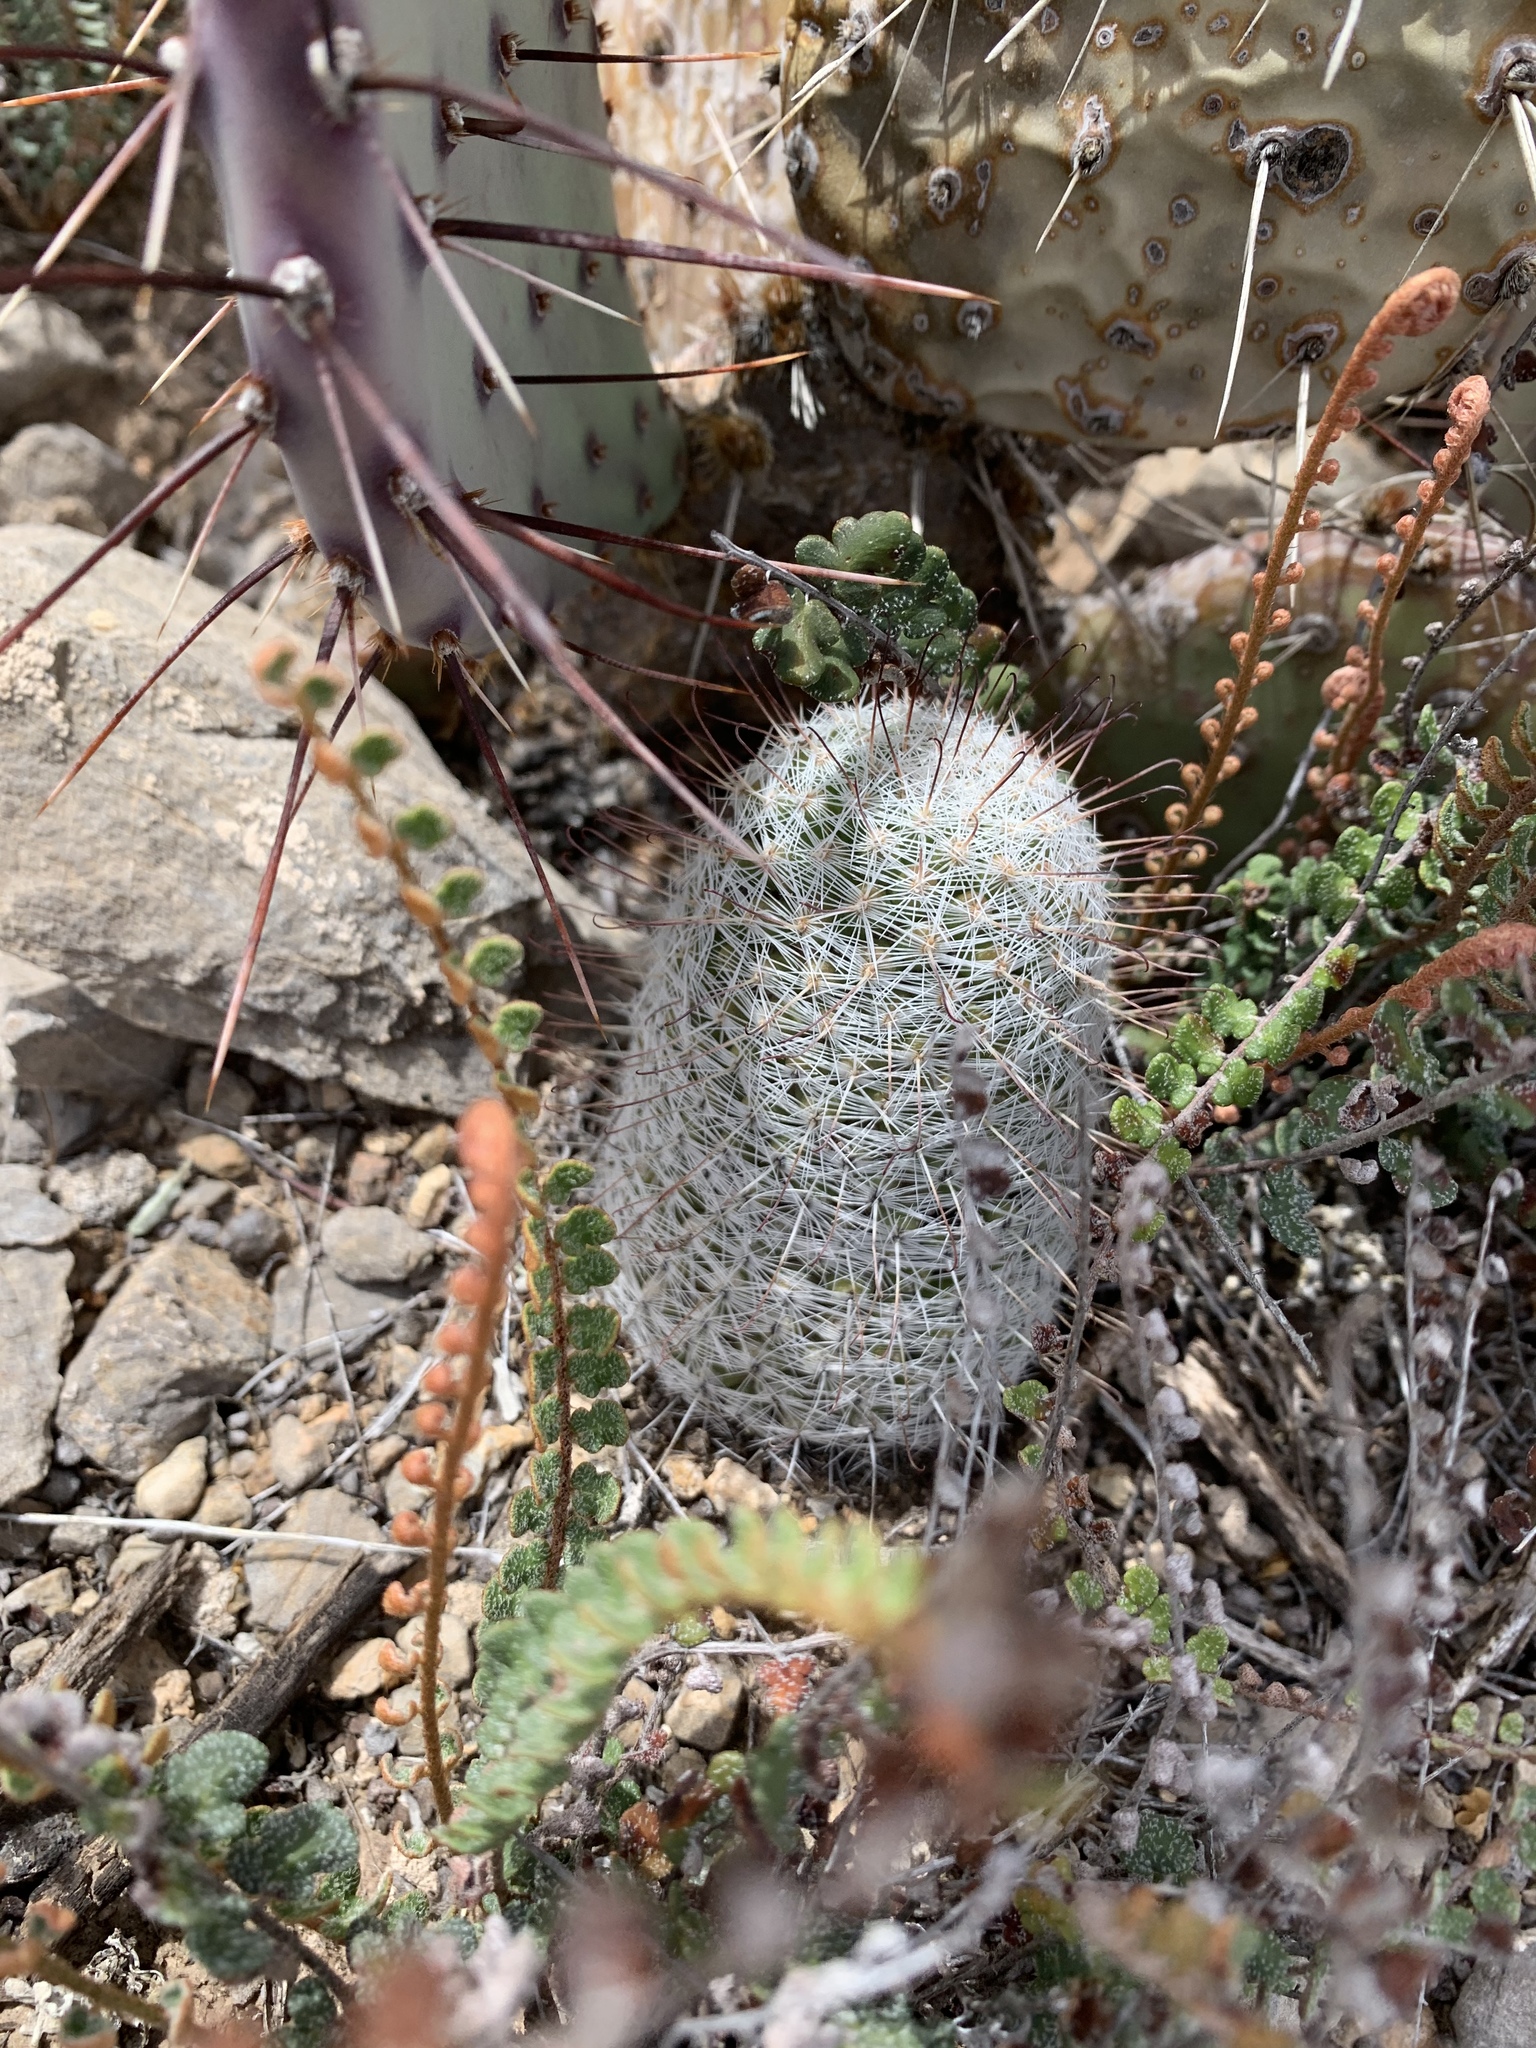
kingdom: Plantae
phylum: Tracheophyta
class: Magnoliopsida
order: Caryophyllales
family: Cactaceae
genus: Cochemiea
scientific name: Cochemiea grahamii
